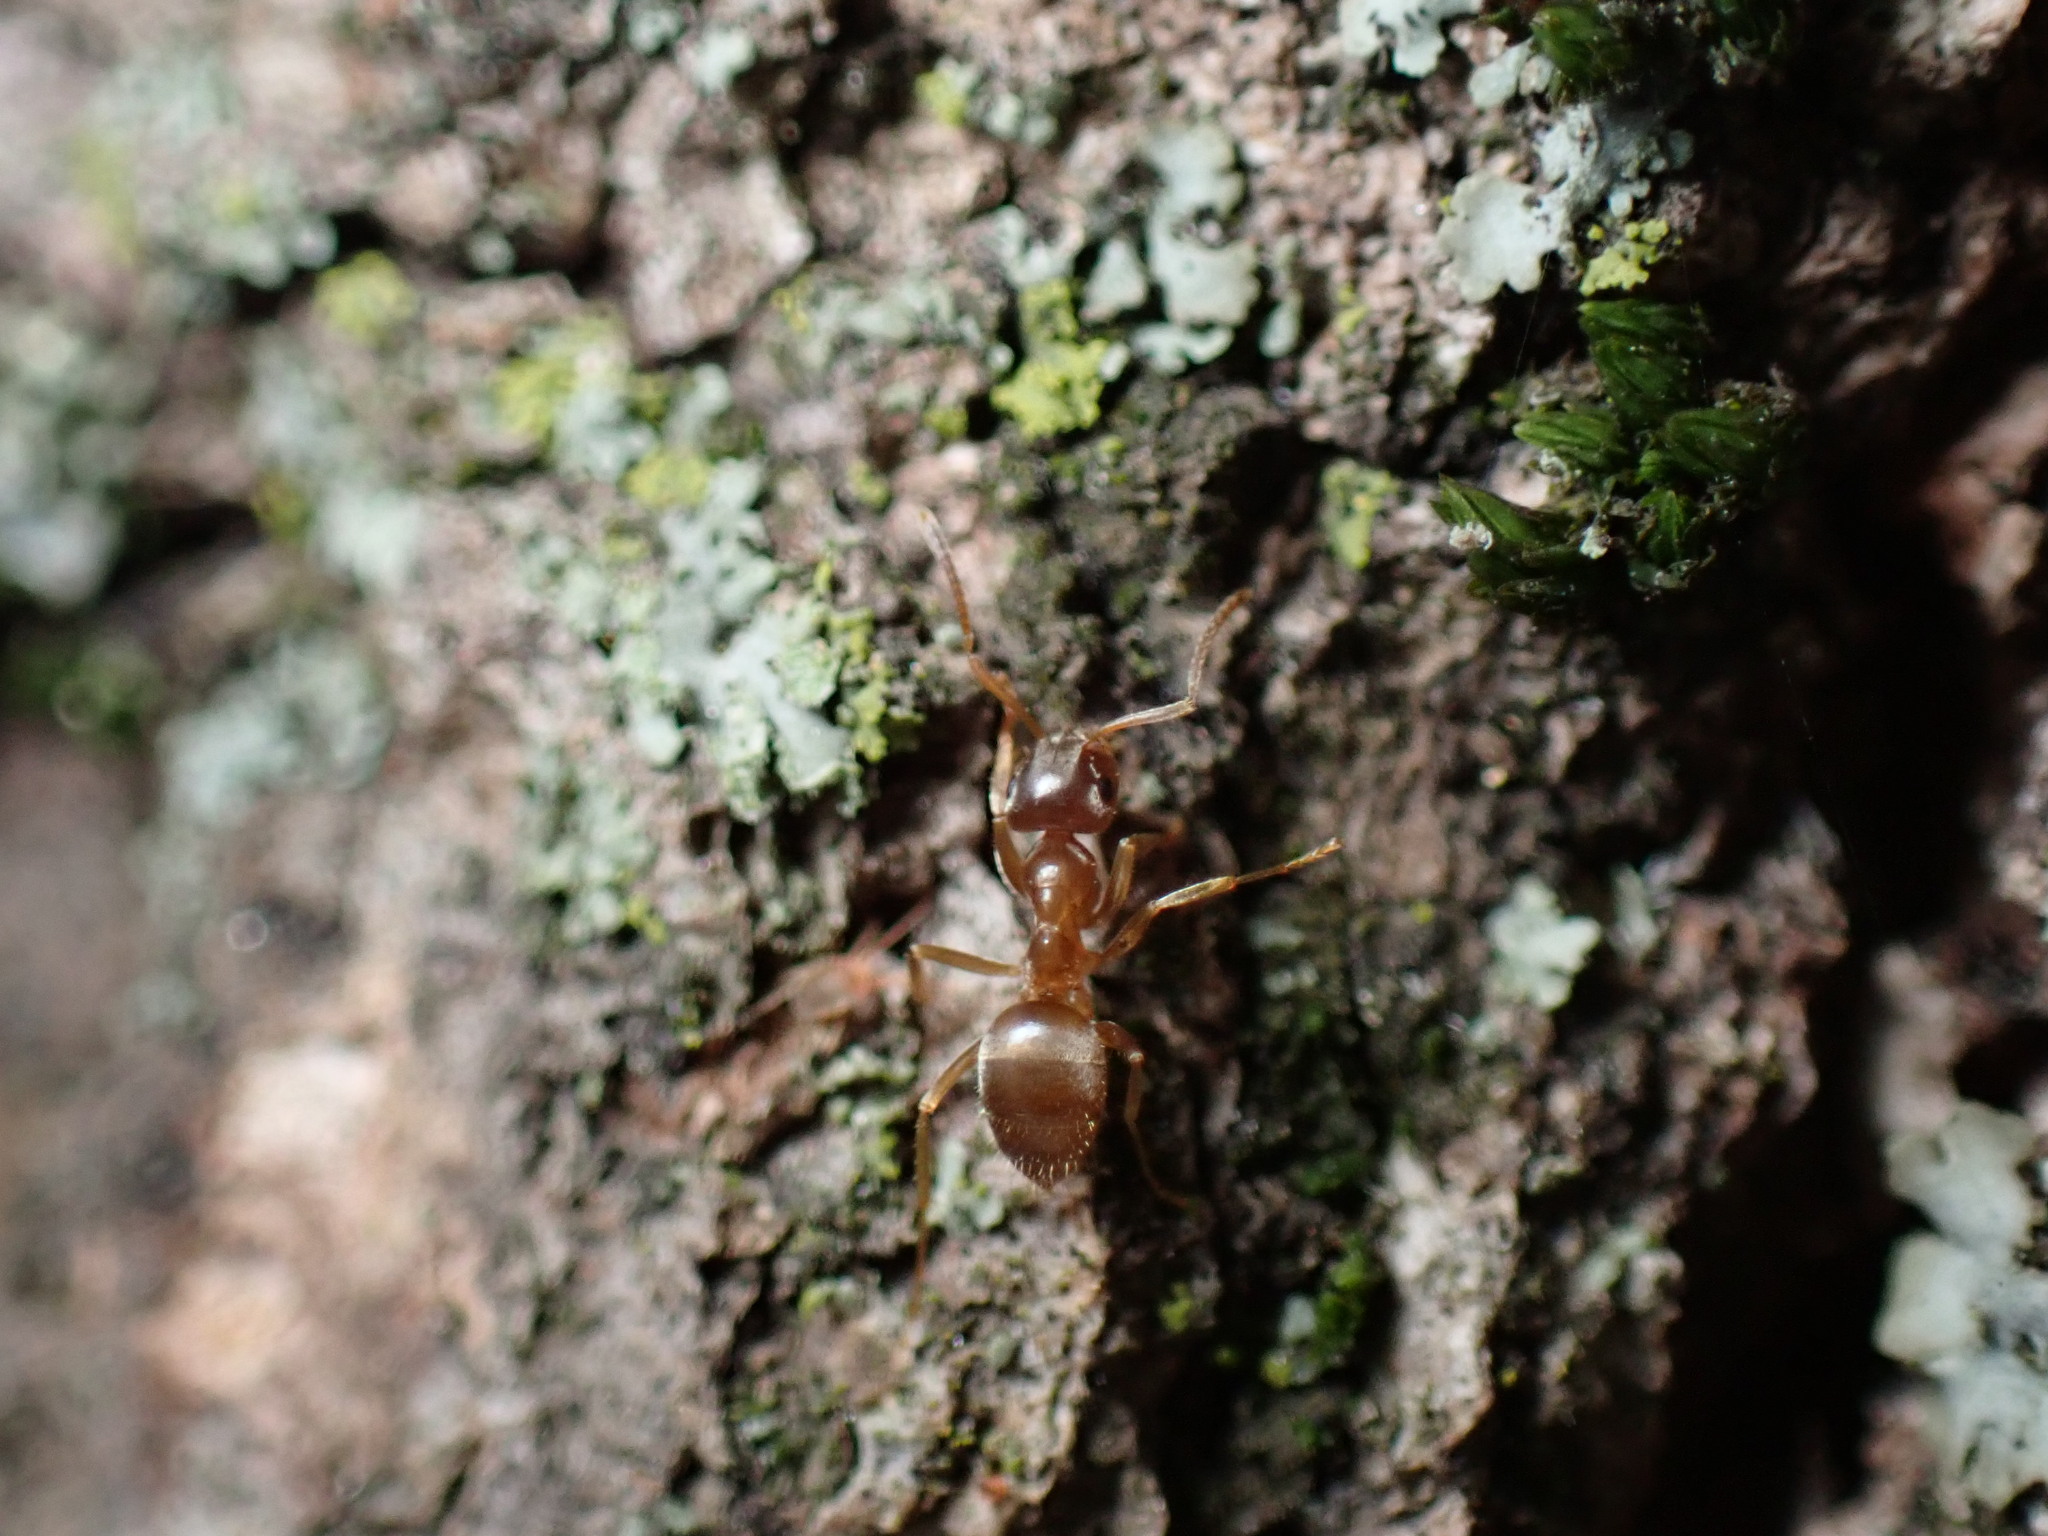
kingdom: Animalia
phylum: Arthropoda
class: Insecta
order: Hymenoptera
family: Formicidae
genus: Lasius
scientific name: Lasius neoniger
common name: Turfgrass ant
